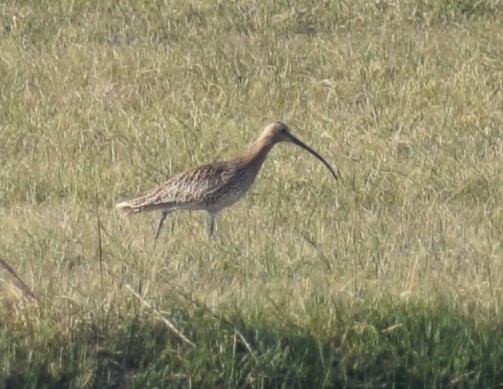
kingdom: Animalia
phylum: Chordata
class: Aves
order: Charadriiformes
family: Scolopacidae
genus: Numenius
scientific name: Numenius arquata
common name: Eurasian curlew
